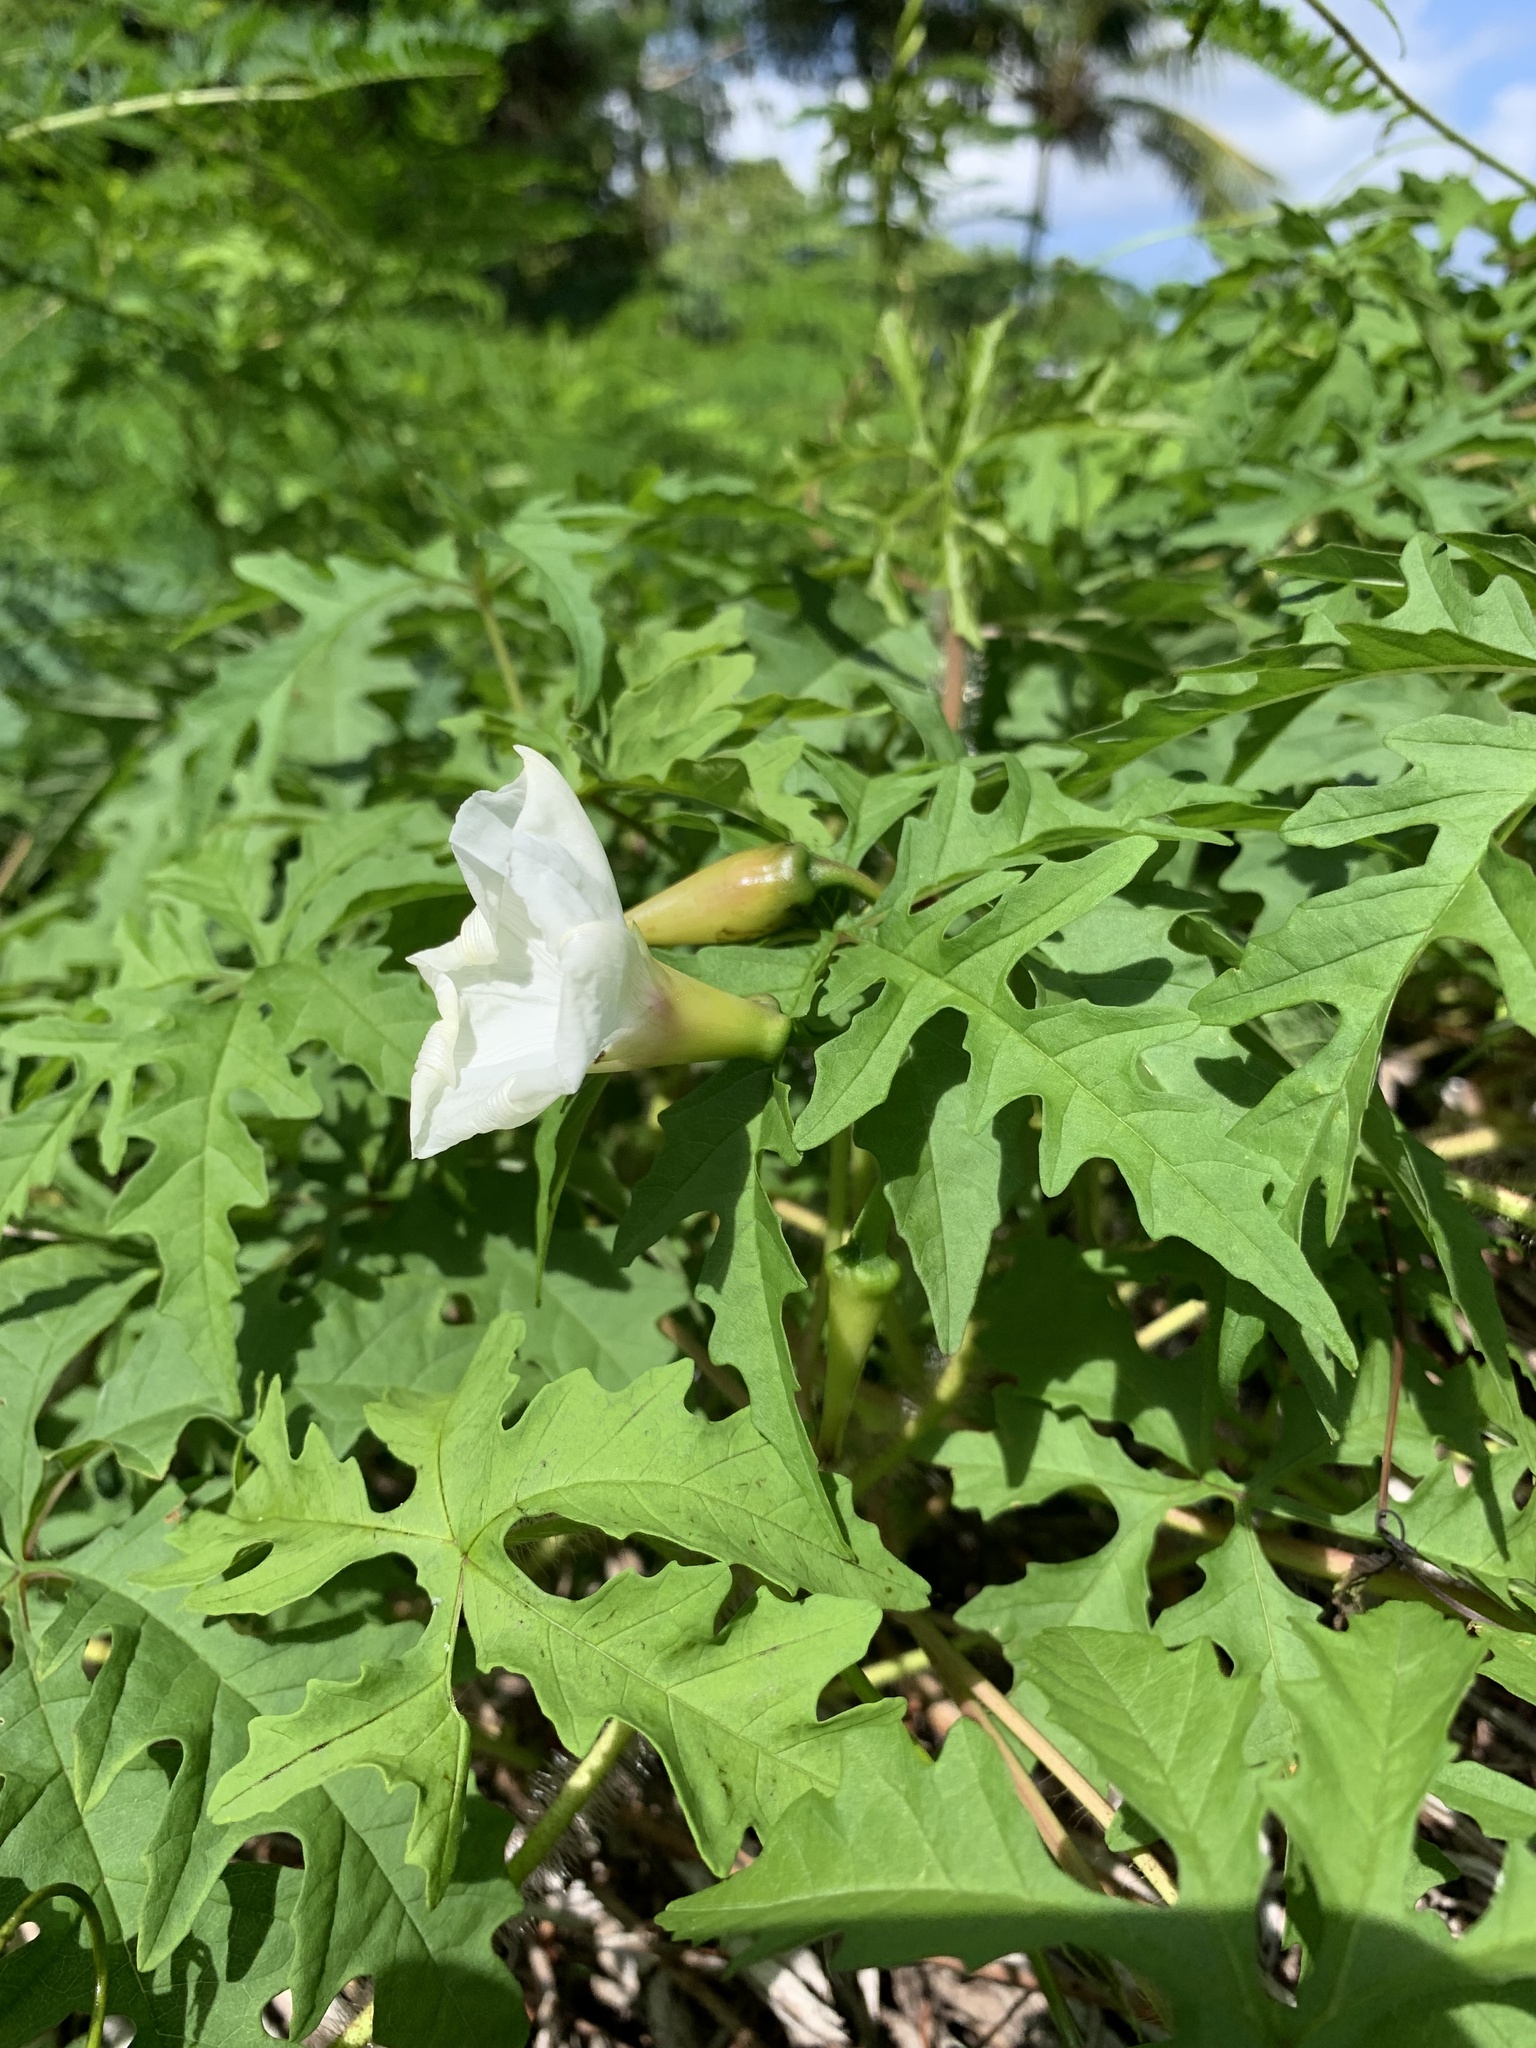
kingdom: Plantae
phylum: Tracheophyta
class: Magnoliopsida
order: Solanales
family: Convolvulaceae
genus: Distimake
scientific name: Distimake dissectus
